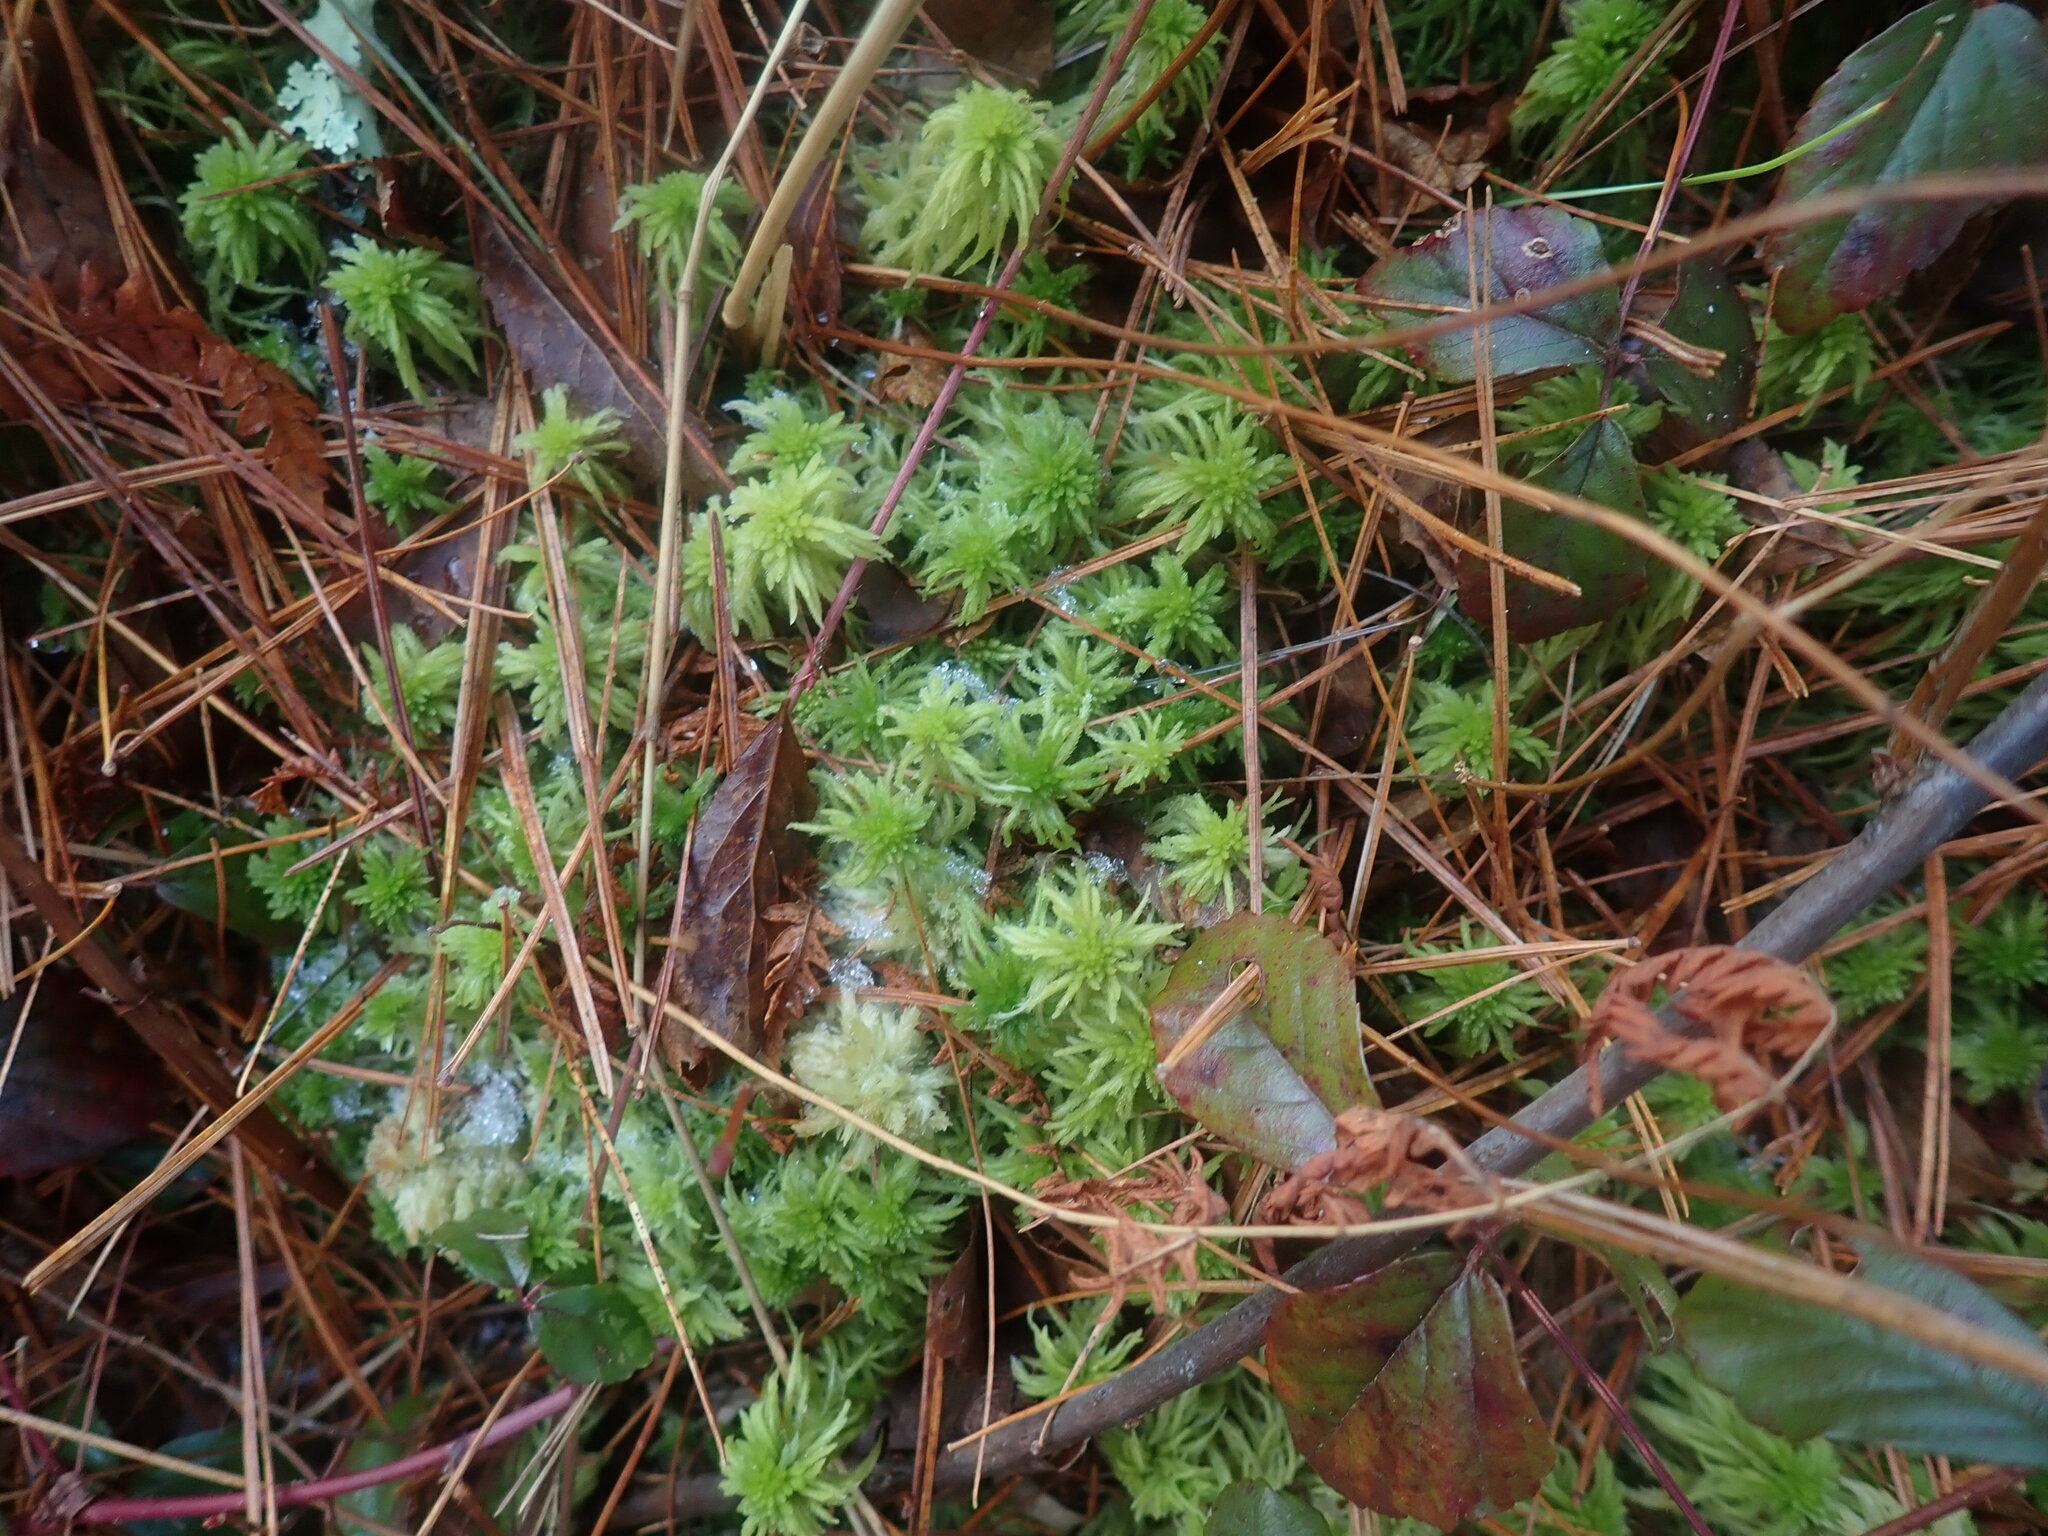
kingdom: Plantae
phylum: Bryophyta
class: Sphagnopsida
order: Sphagnales
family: Sphagnaceae
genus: Sphagnum
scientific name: Sphagnum
